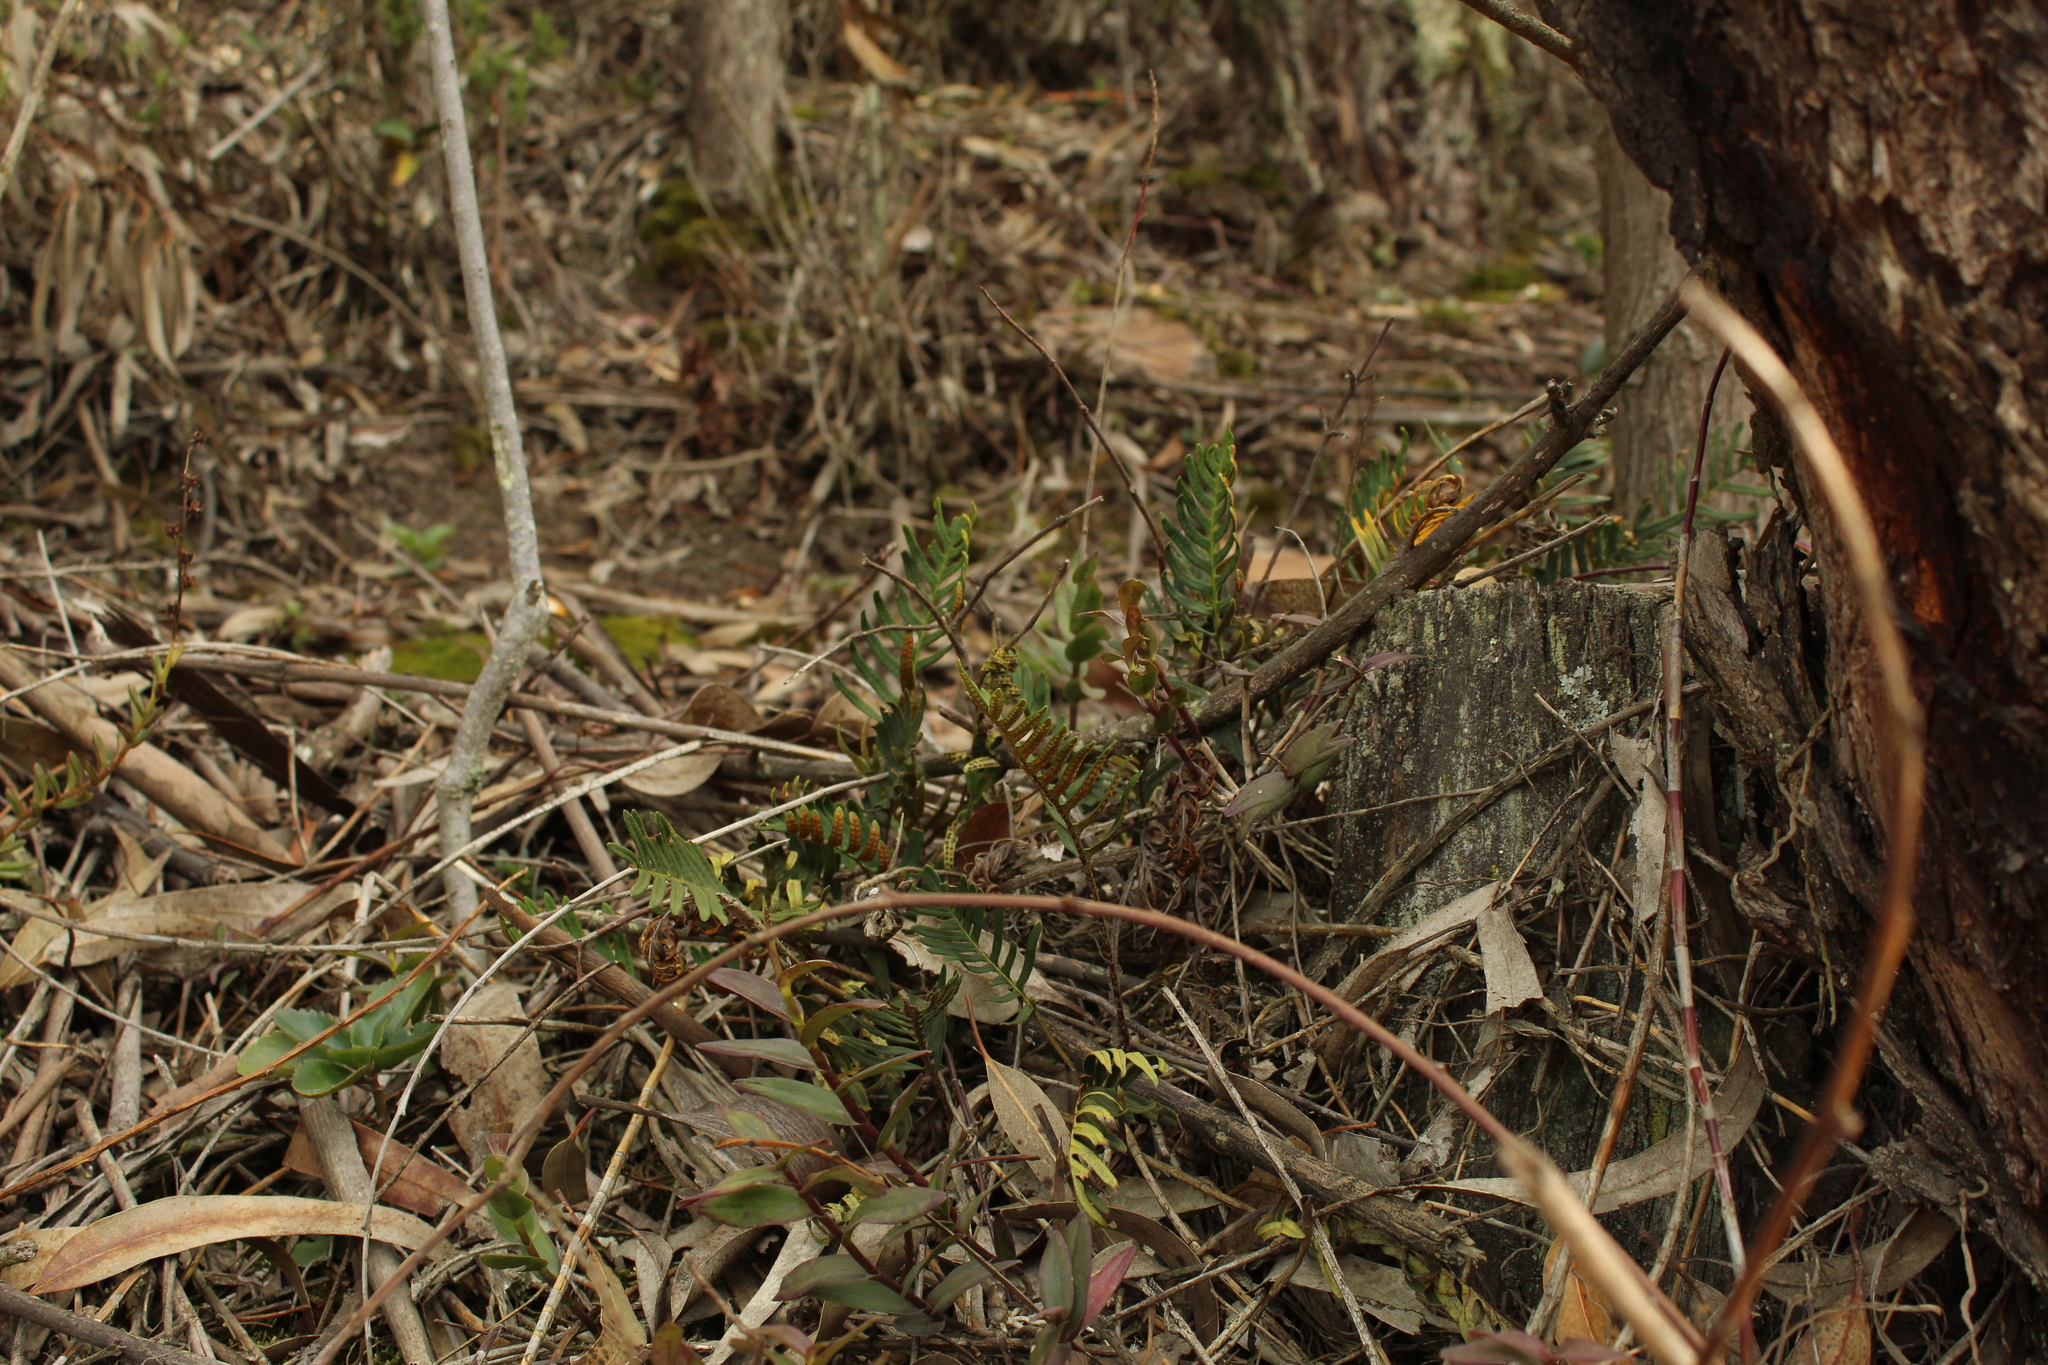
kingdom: Plantae
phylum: Tracheophyta
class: Polypodiopsida
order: Polypodiales
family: Polypodiaceae
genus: Pleopeltis
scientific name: Pleopeltis orientalis
